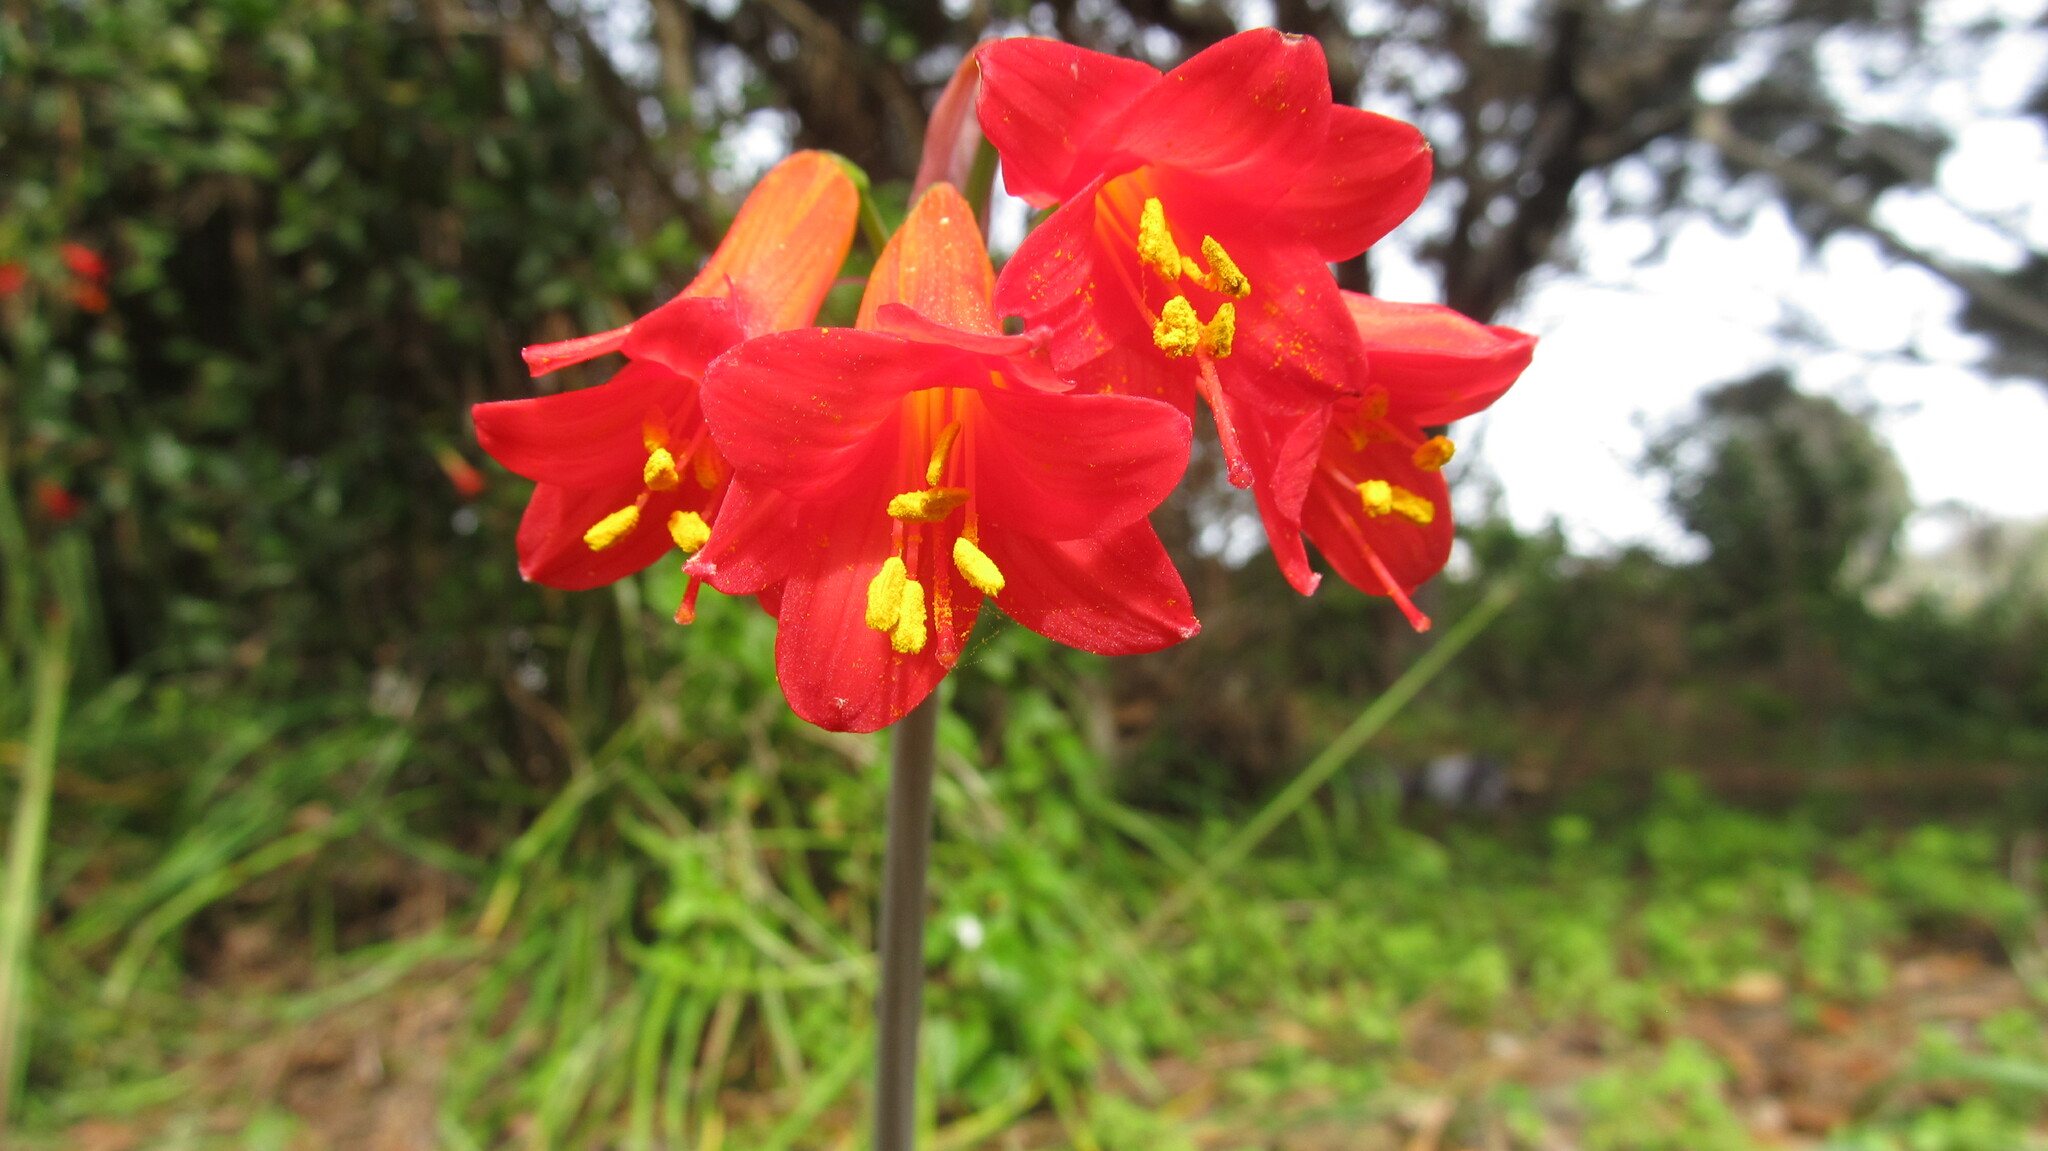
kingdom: Plantae
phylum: Tracheophyta
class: Liliopsida
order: Asparagales
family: Amaryllidaceae
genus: Phycella
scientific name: Phycella cyrtanthoides
